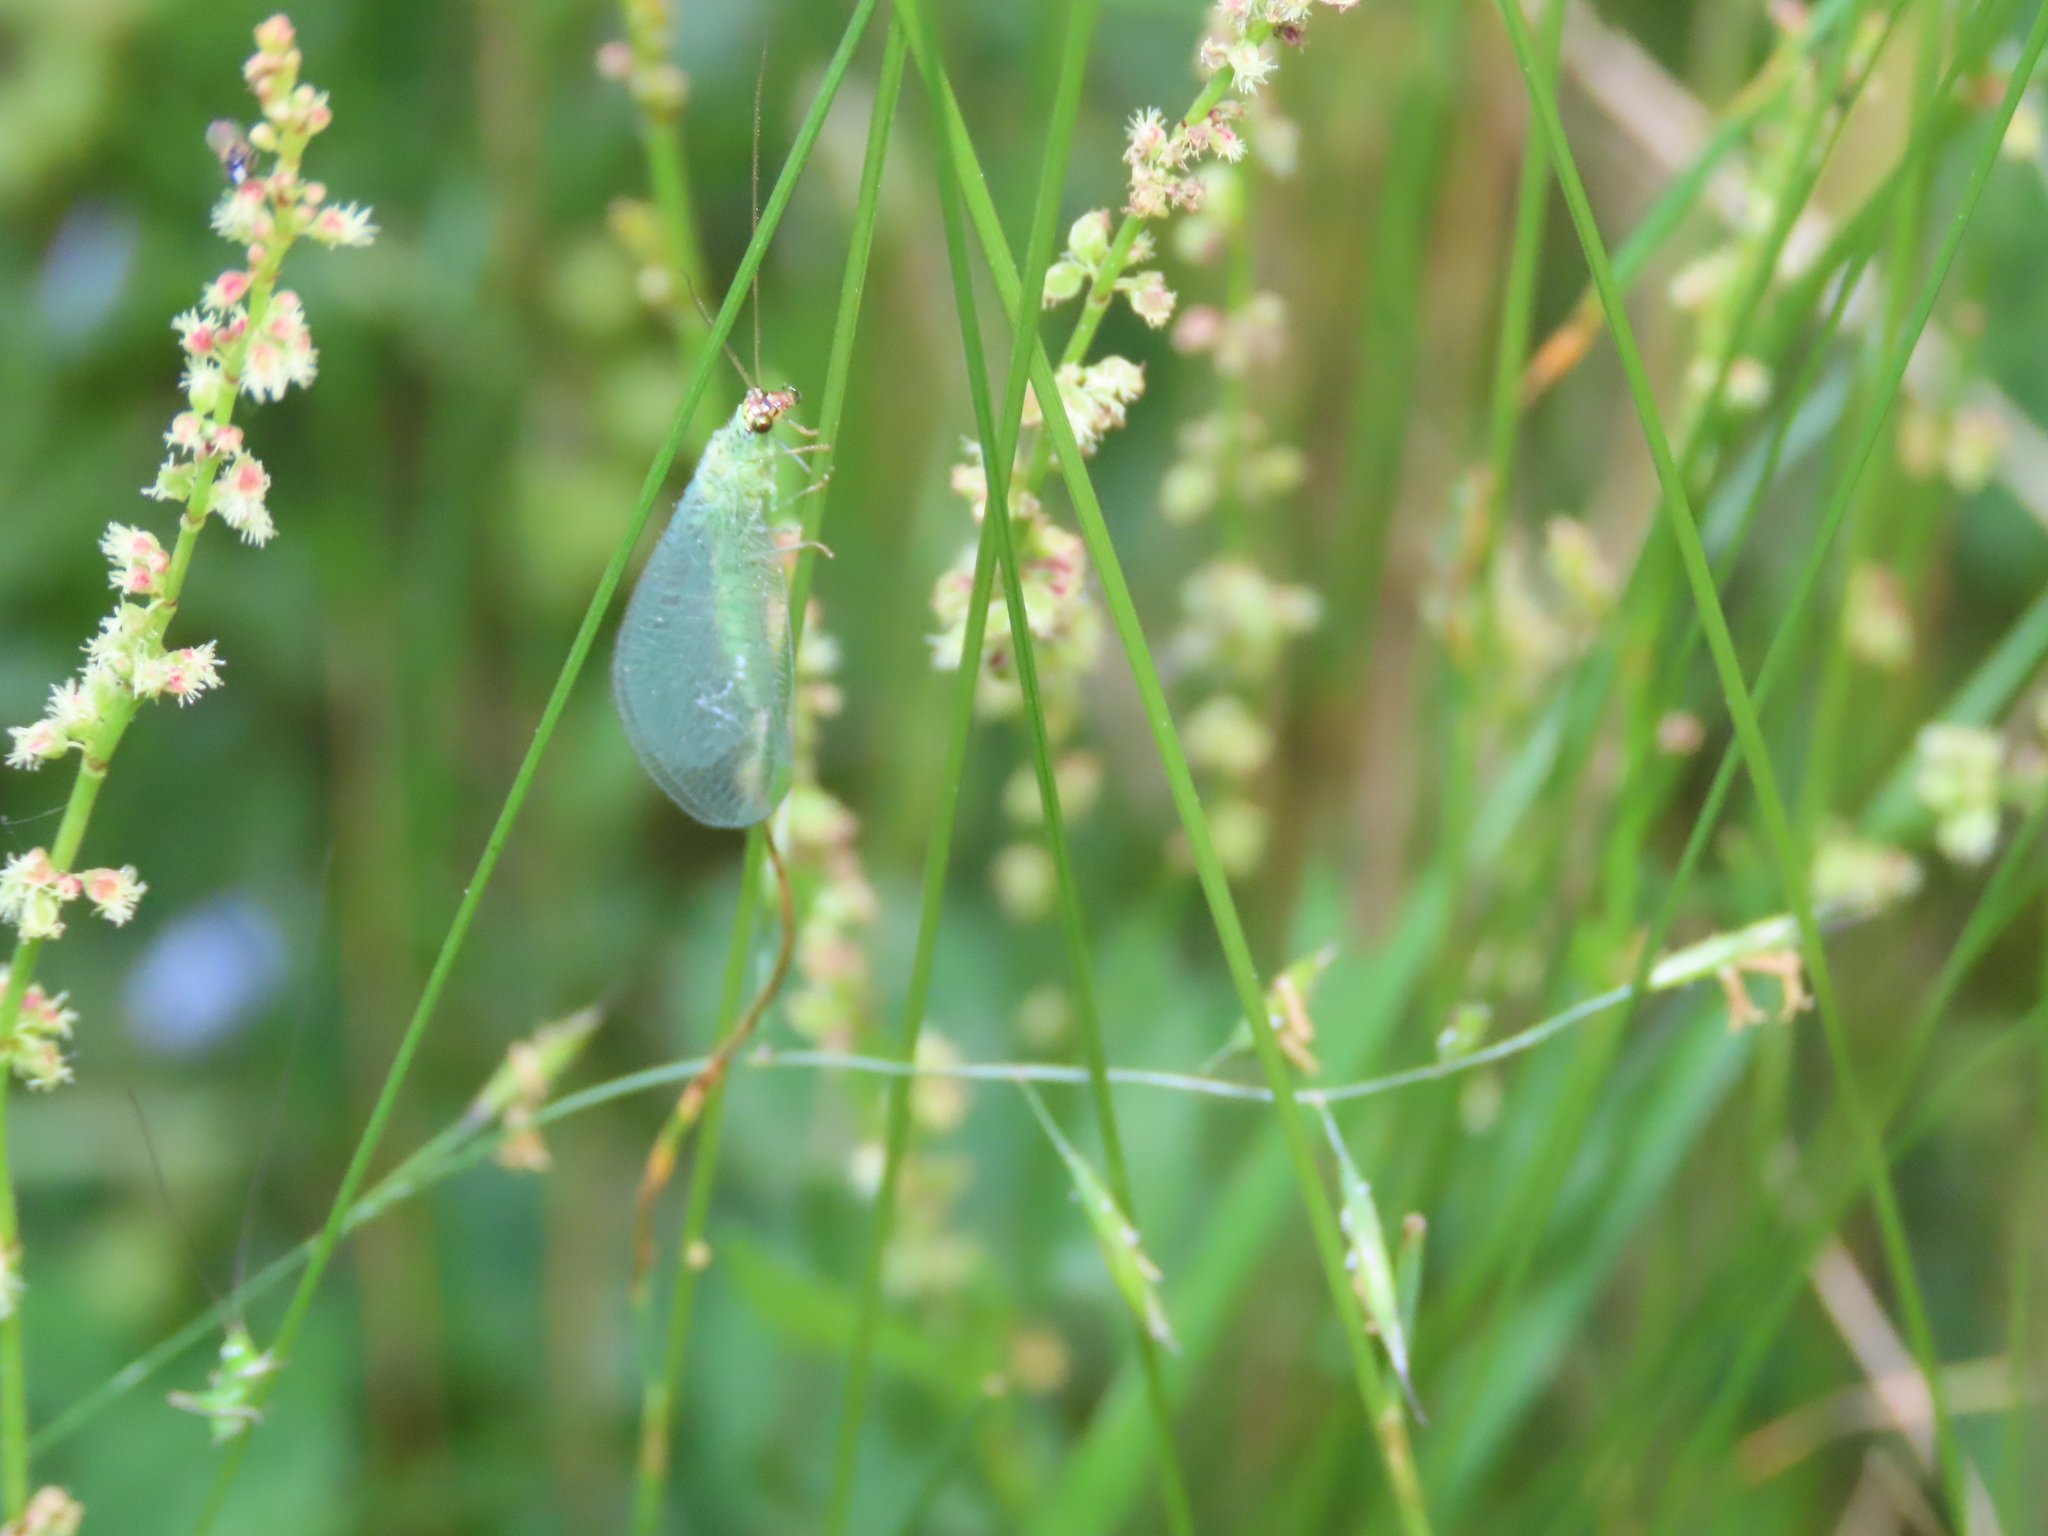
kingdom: Animalia
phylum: Arthropoda
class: Insecta
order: Neuroptera
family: Chrysopidae
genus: Chrysopa
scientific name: Chrysopa oculata
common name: Golden-eyed lacewing
